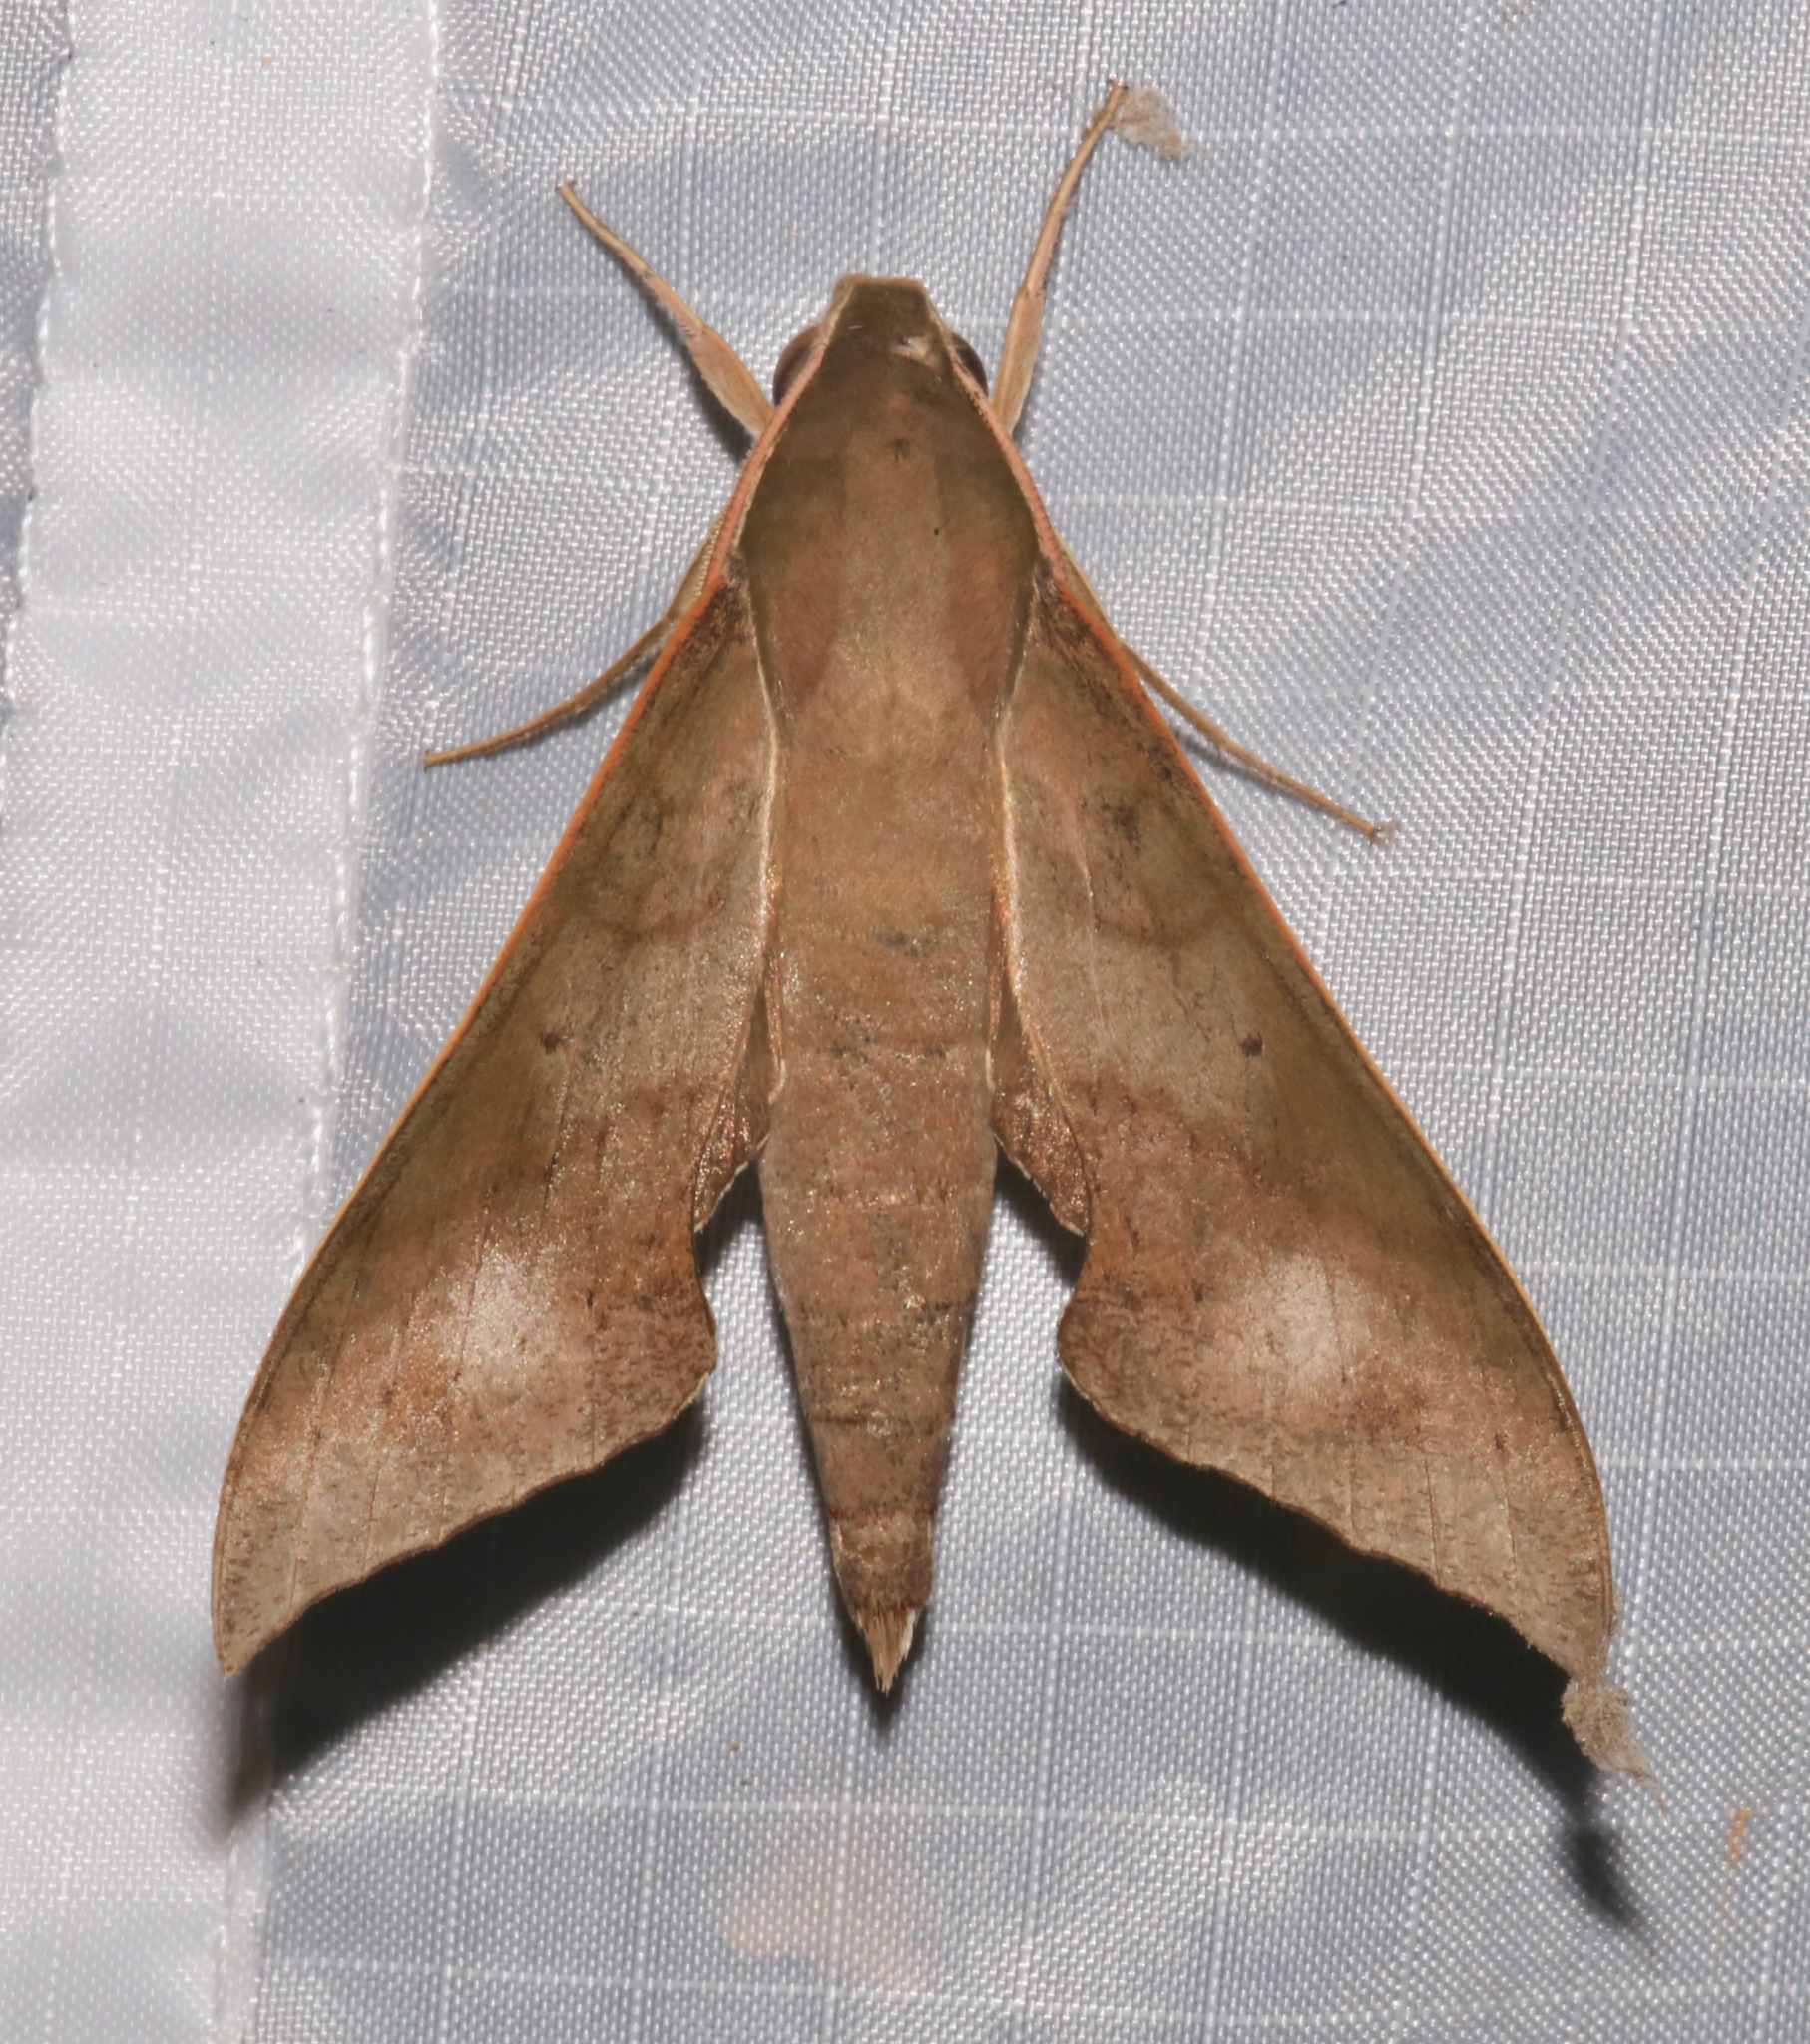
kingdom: Animalia
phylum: Arthropoda
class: Insecta
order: Lepidoptera
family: Sphingidae
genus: Xylophanes
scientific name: Xylophanes hannemanni
